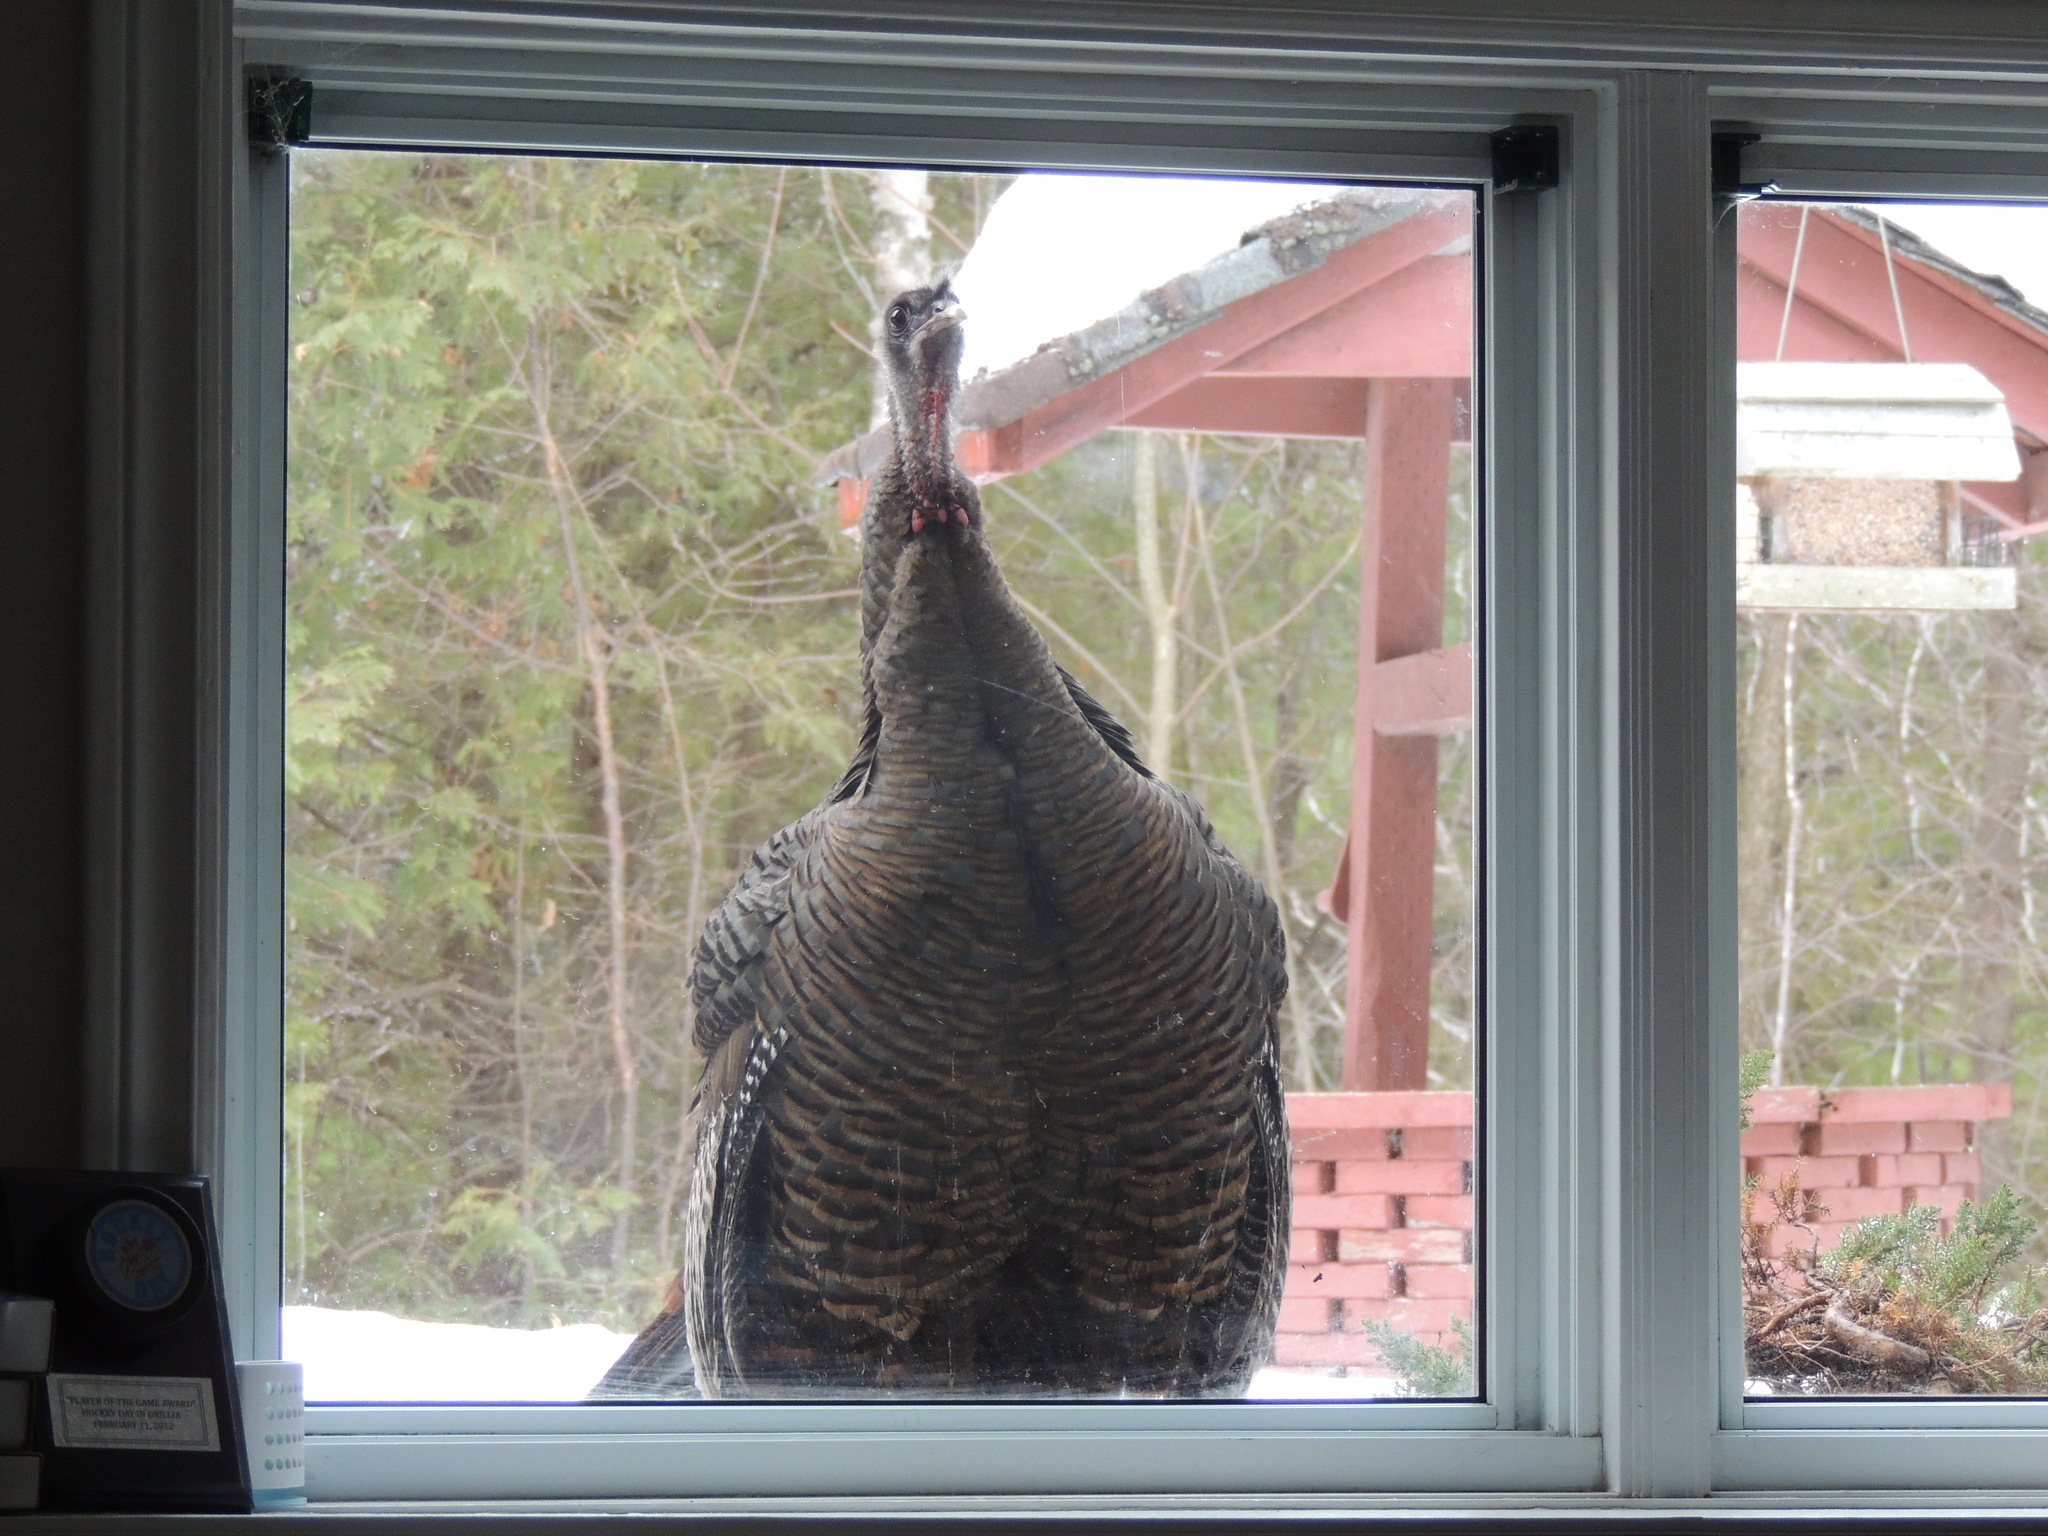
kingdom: Animalia
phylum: Chordata
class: Aves
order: Galliformes
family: Phasianidae
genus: Meleagris
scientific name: Meleagris gallopavo
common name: Wild turkey
